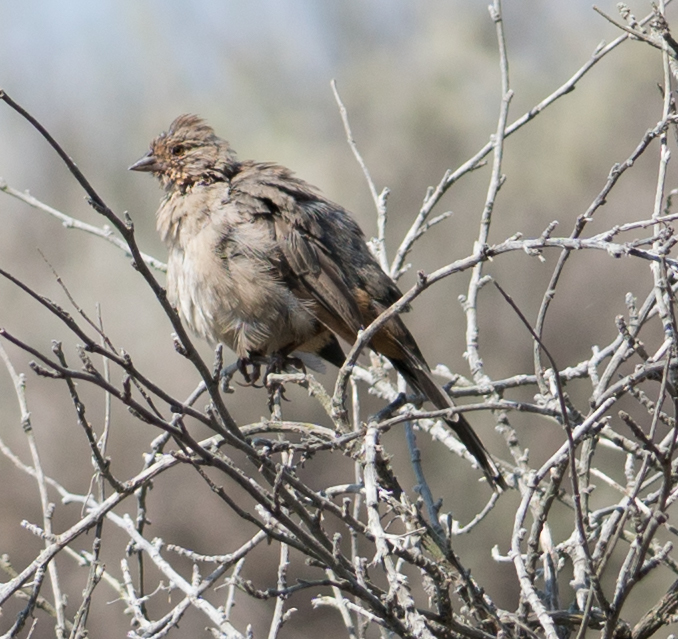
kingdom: Animalia
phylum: Chordata
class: Aves
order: Passeriformes
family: Passerellidae
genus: Melozone
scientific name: Melozone crissalis
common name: California towhee
